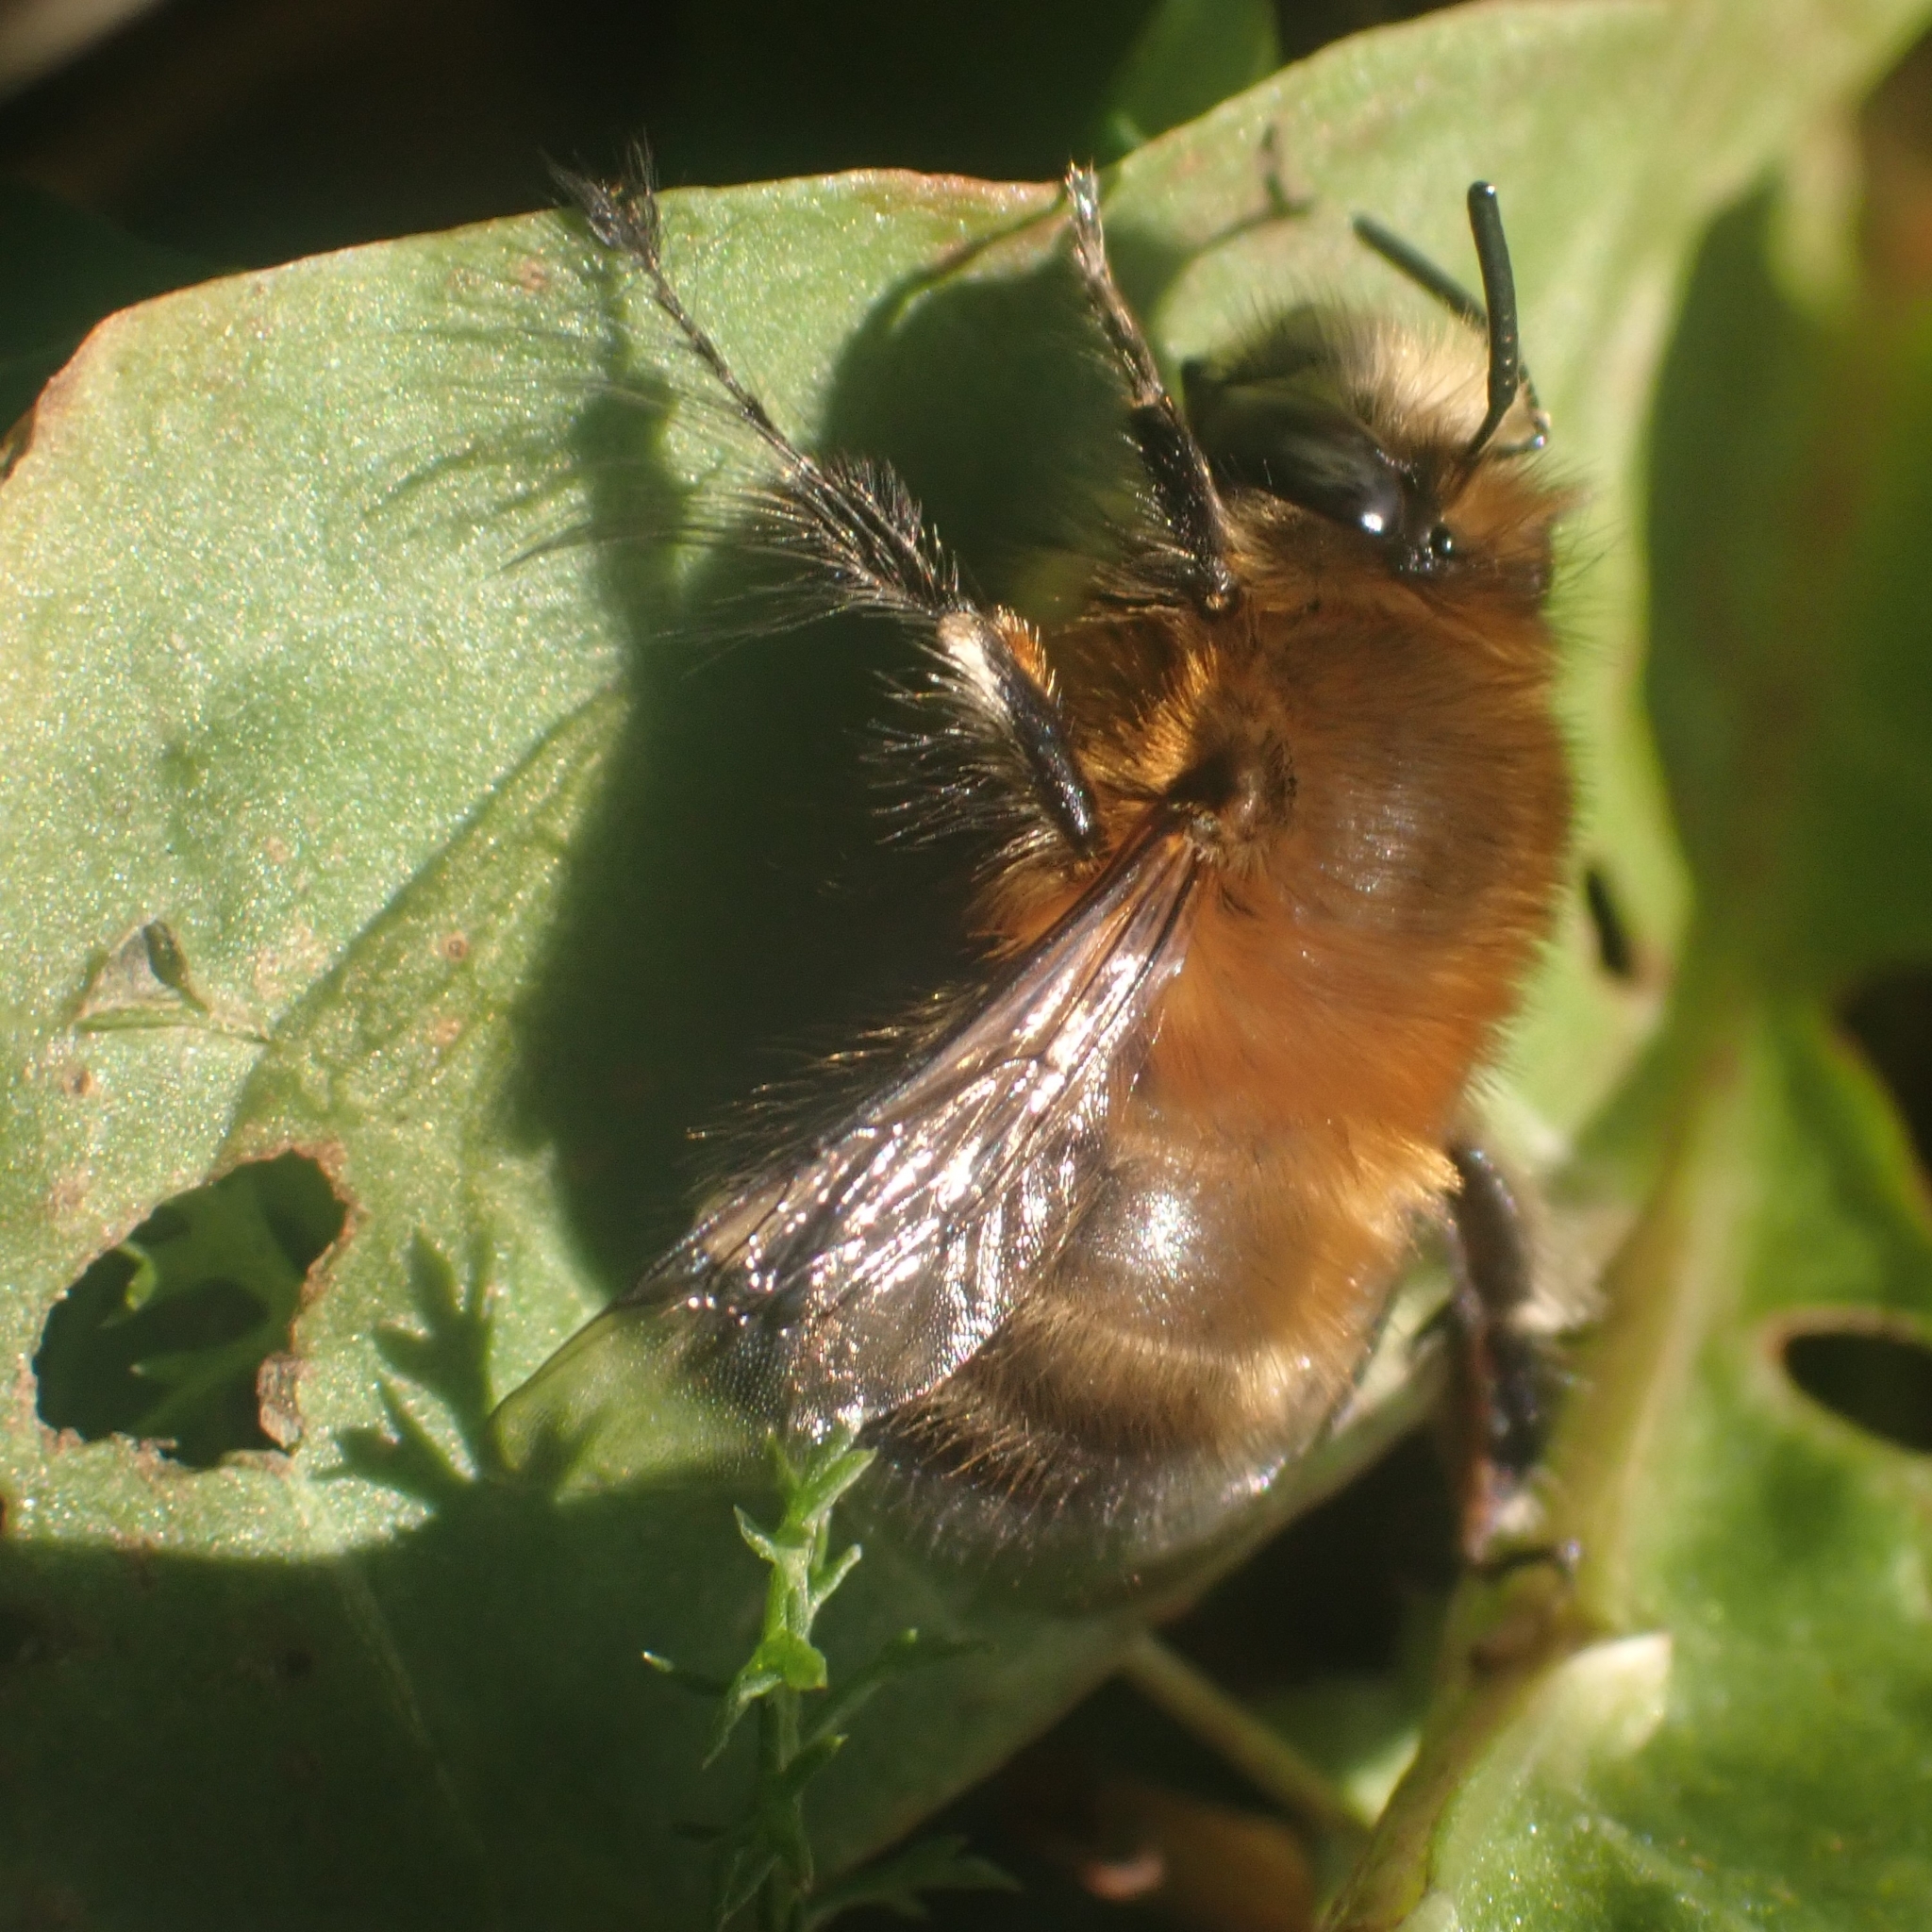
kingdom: Animalia
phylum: Arthropoda
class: Insecta
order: Hymenoptera
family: Apidae
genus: Anthophora
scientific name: Anthophora plumipes
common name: Hairy-footed flower bee
